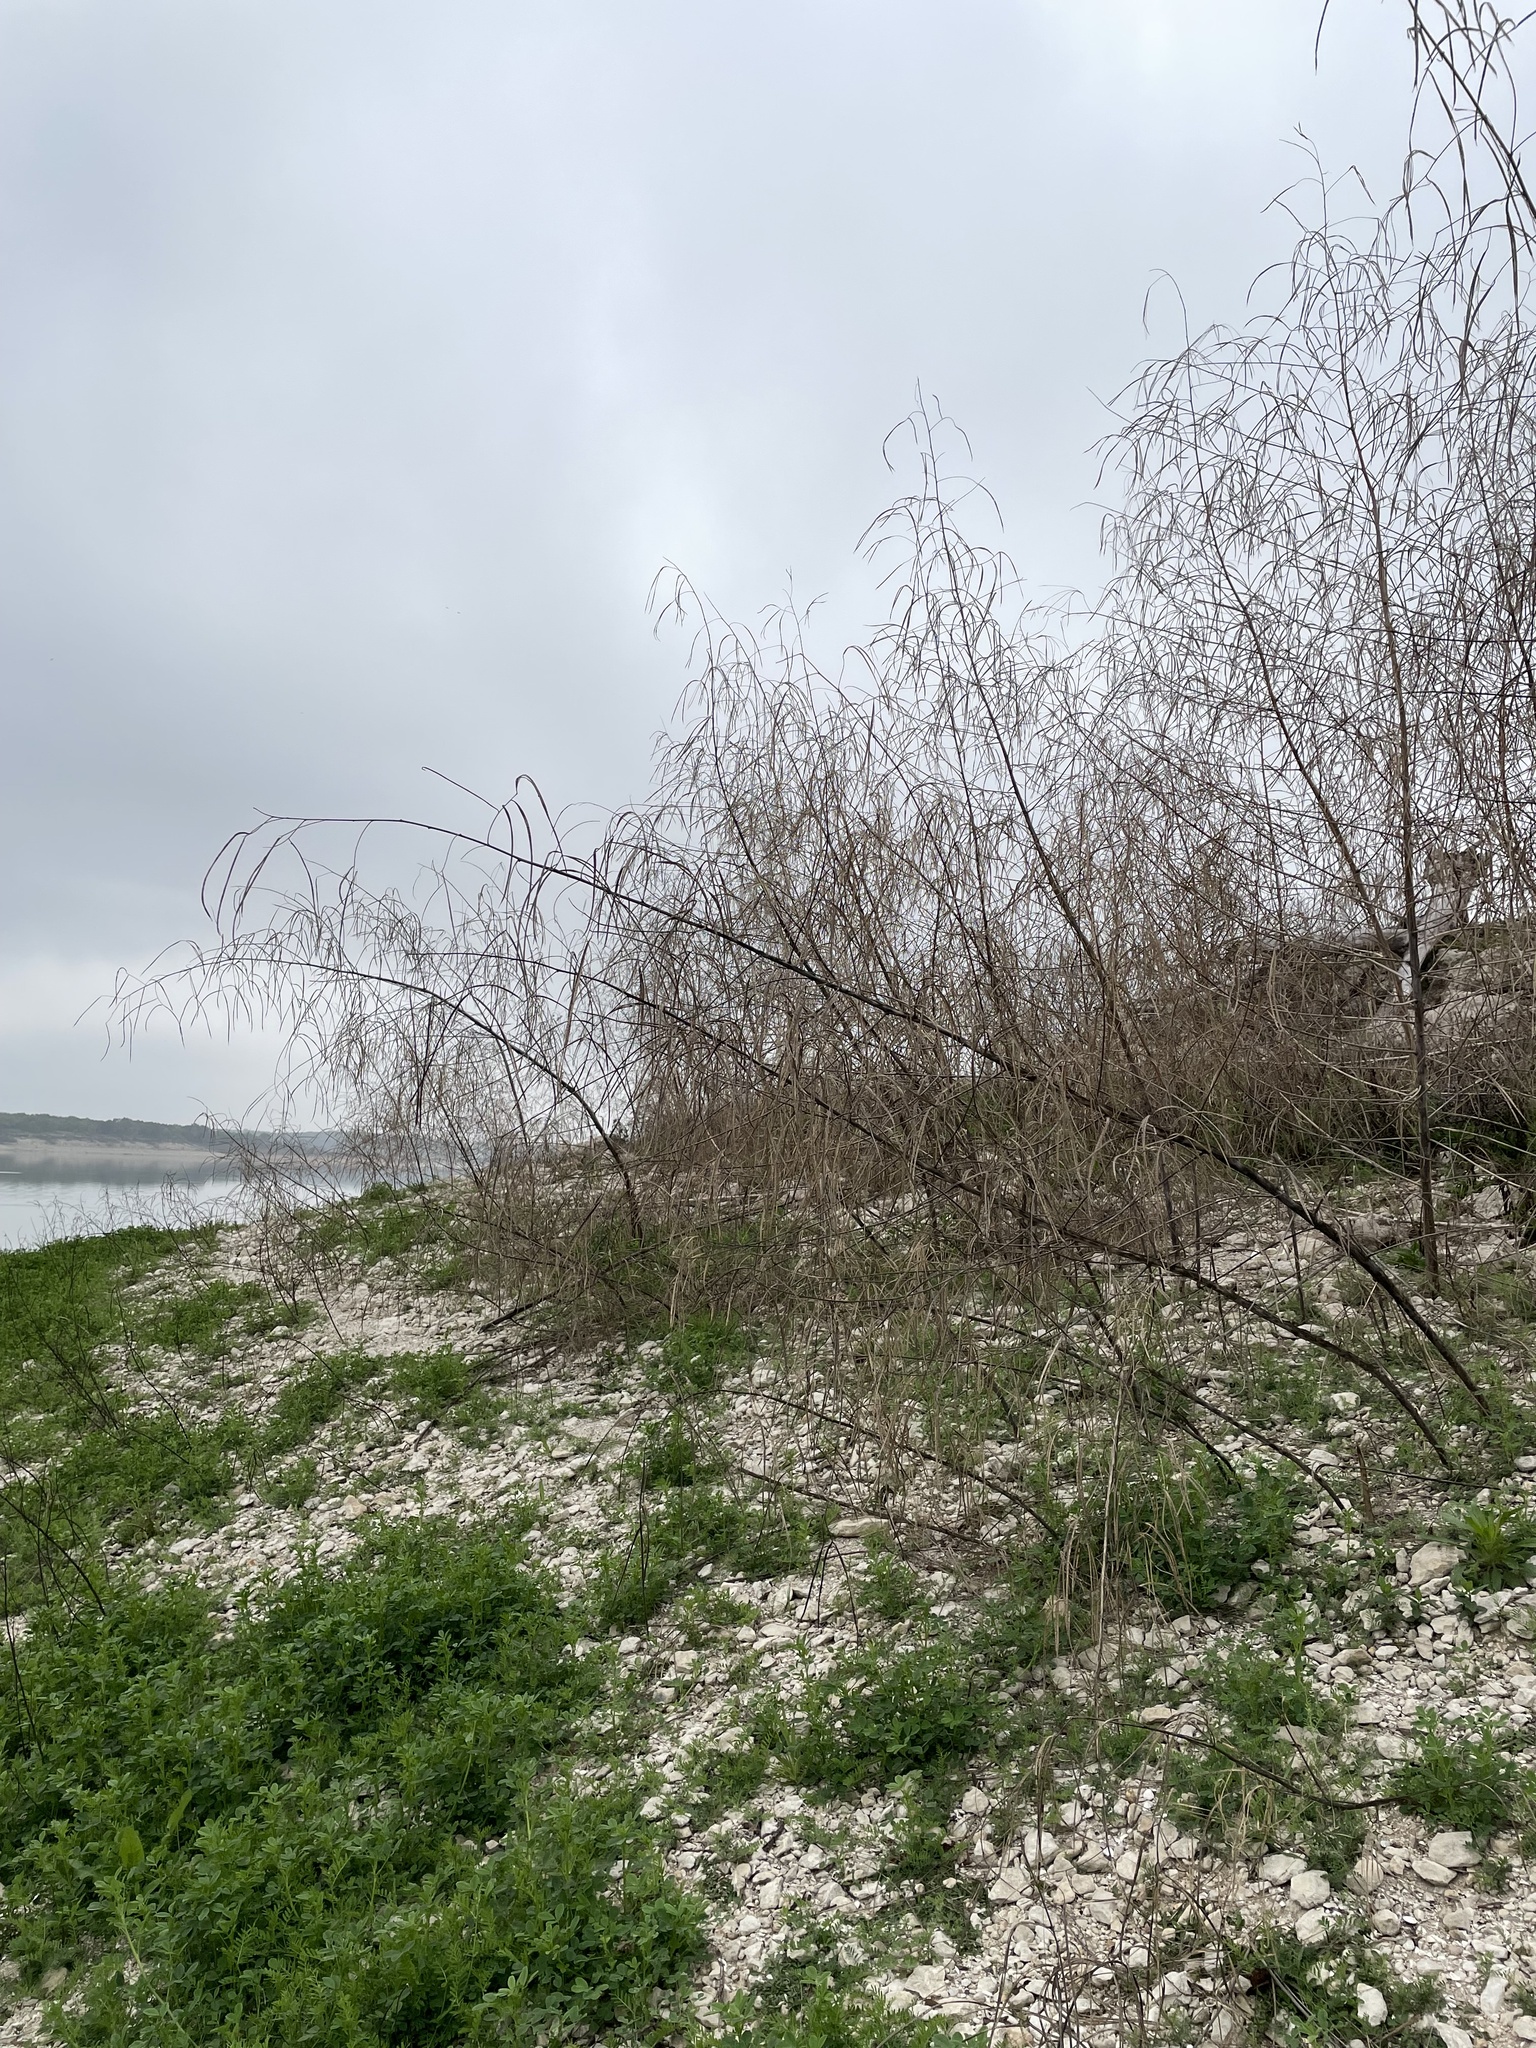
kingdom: Plantae
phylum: Tracheophyta
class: Magnoliopsida
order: Fabales
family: Fabaceae
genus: Sesbania
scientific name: Sesbania herbacea
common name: Bigpod sesbania
